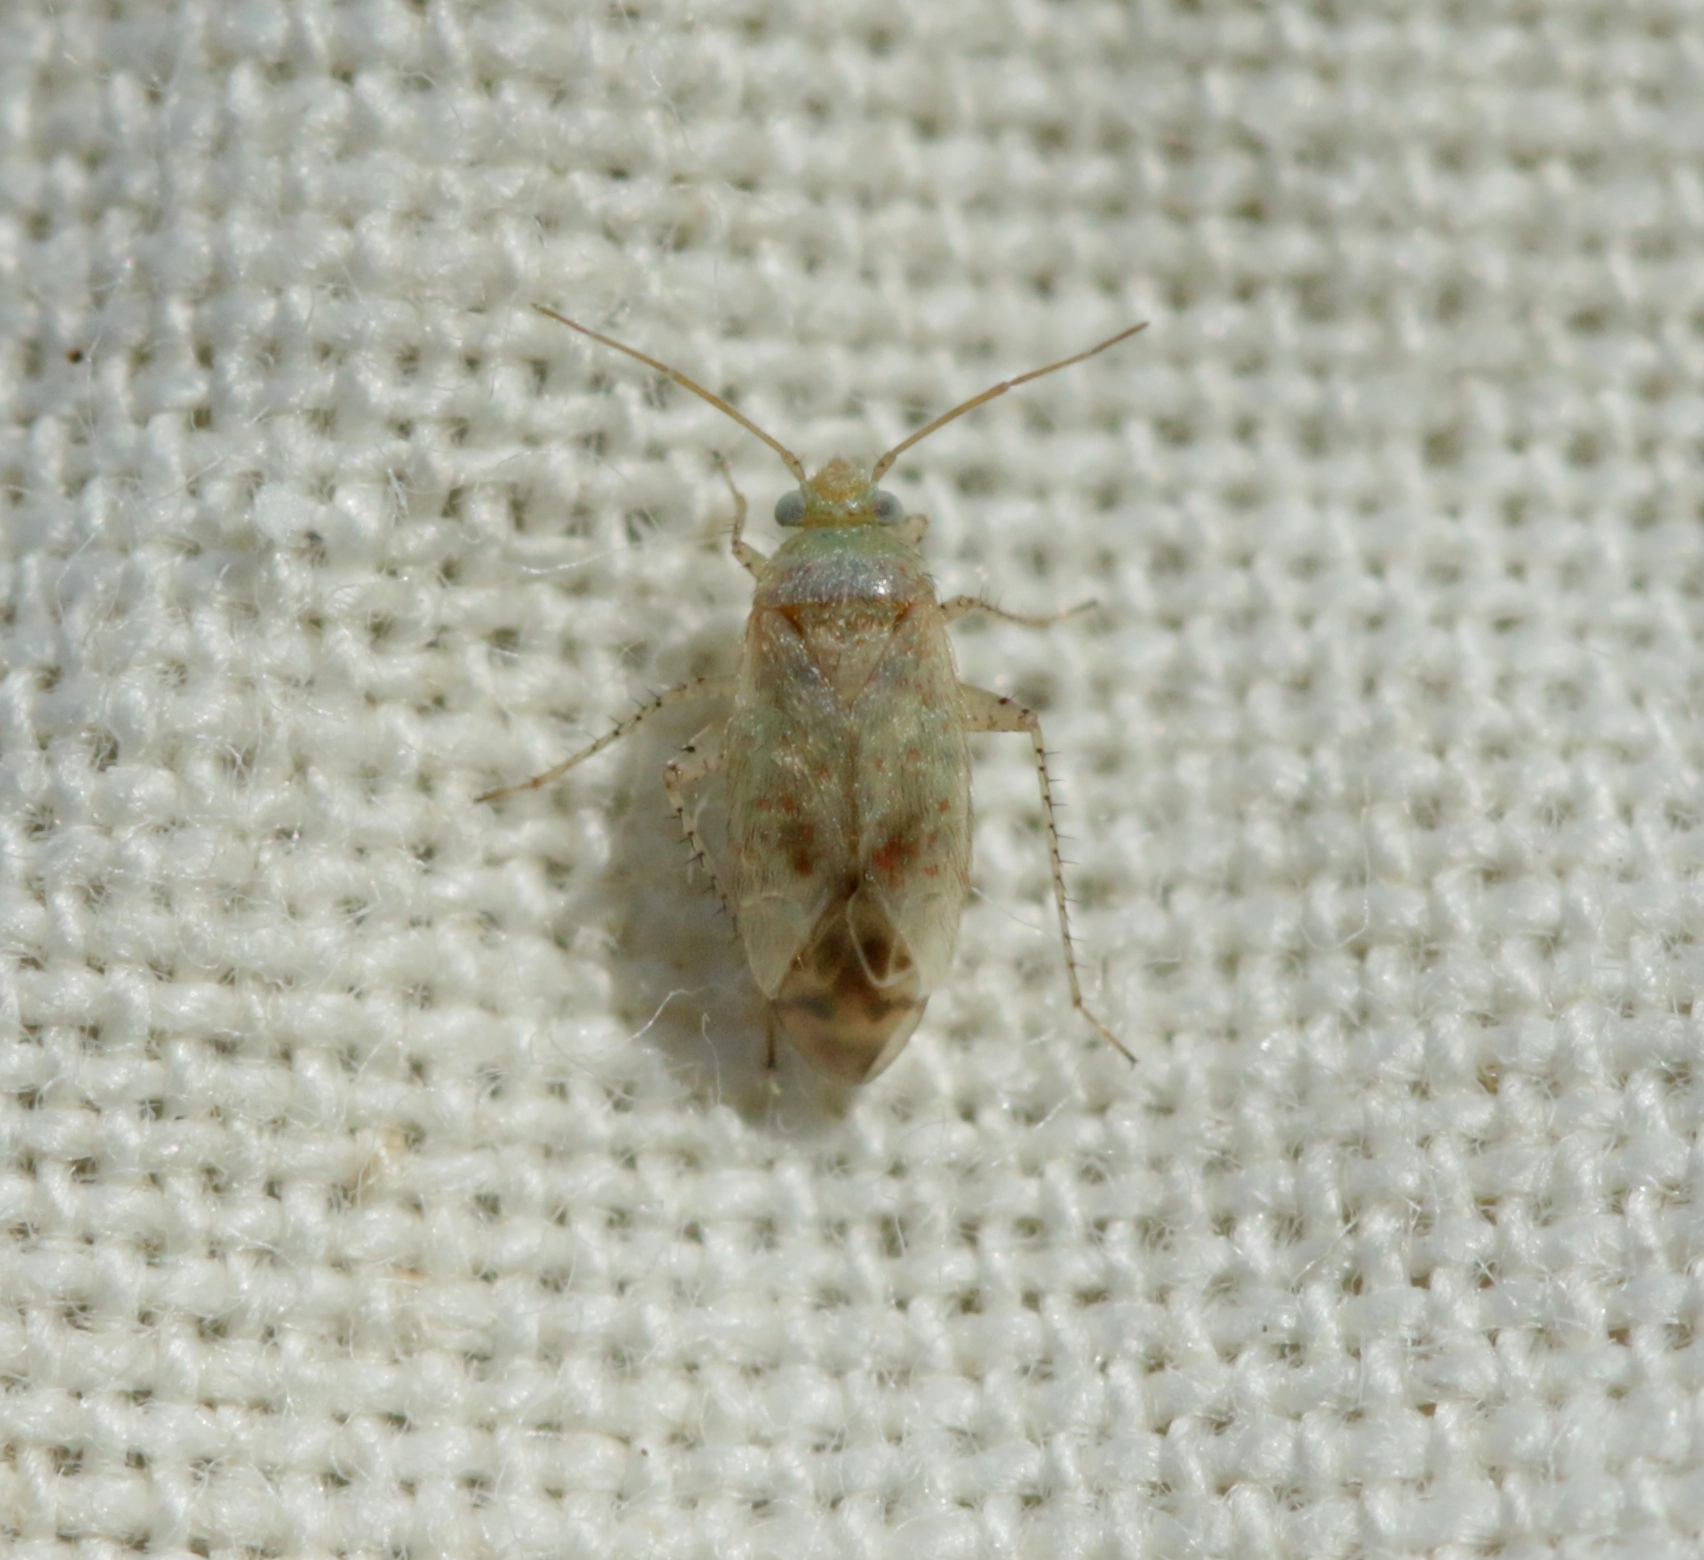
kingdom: Animalia
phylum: Arthropoda
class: Insecta
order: Hemiptera
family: Miridae
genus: Psallus
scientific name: Psallus haematodes
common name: Plant bug
